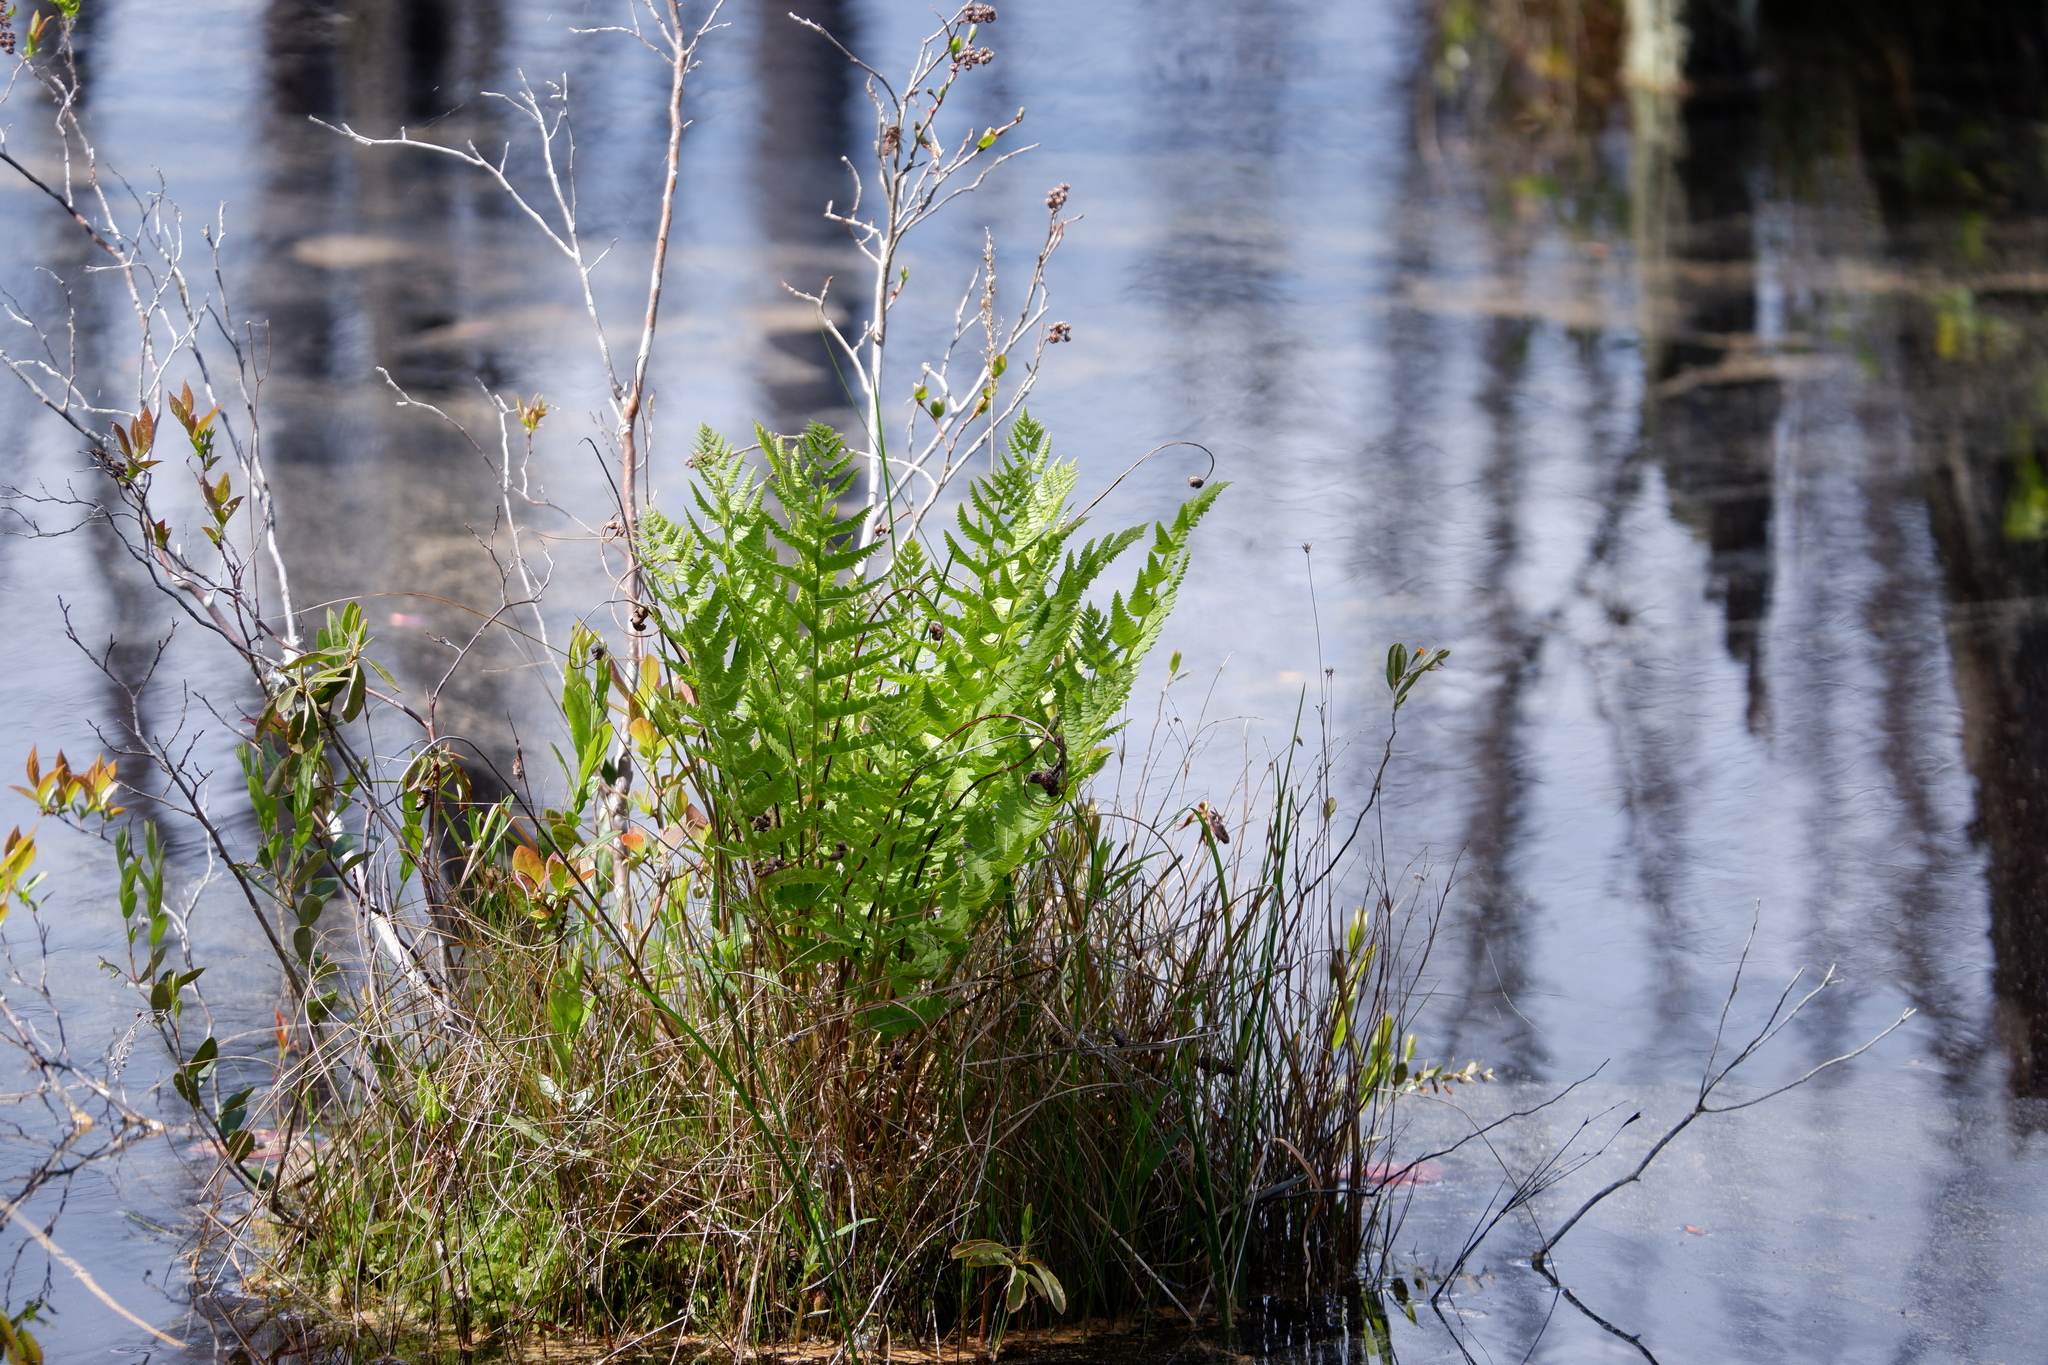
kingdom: Plantae
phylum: Tracheophyta
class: Polypodiopsida
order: Osmundales
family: Osmundaceae
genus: Osmundastrum
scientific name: Osmundastrum cinnamomeum
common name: Cinnamon fern
